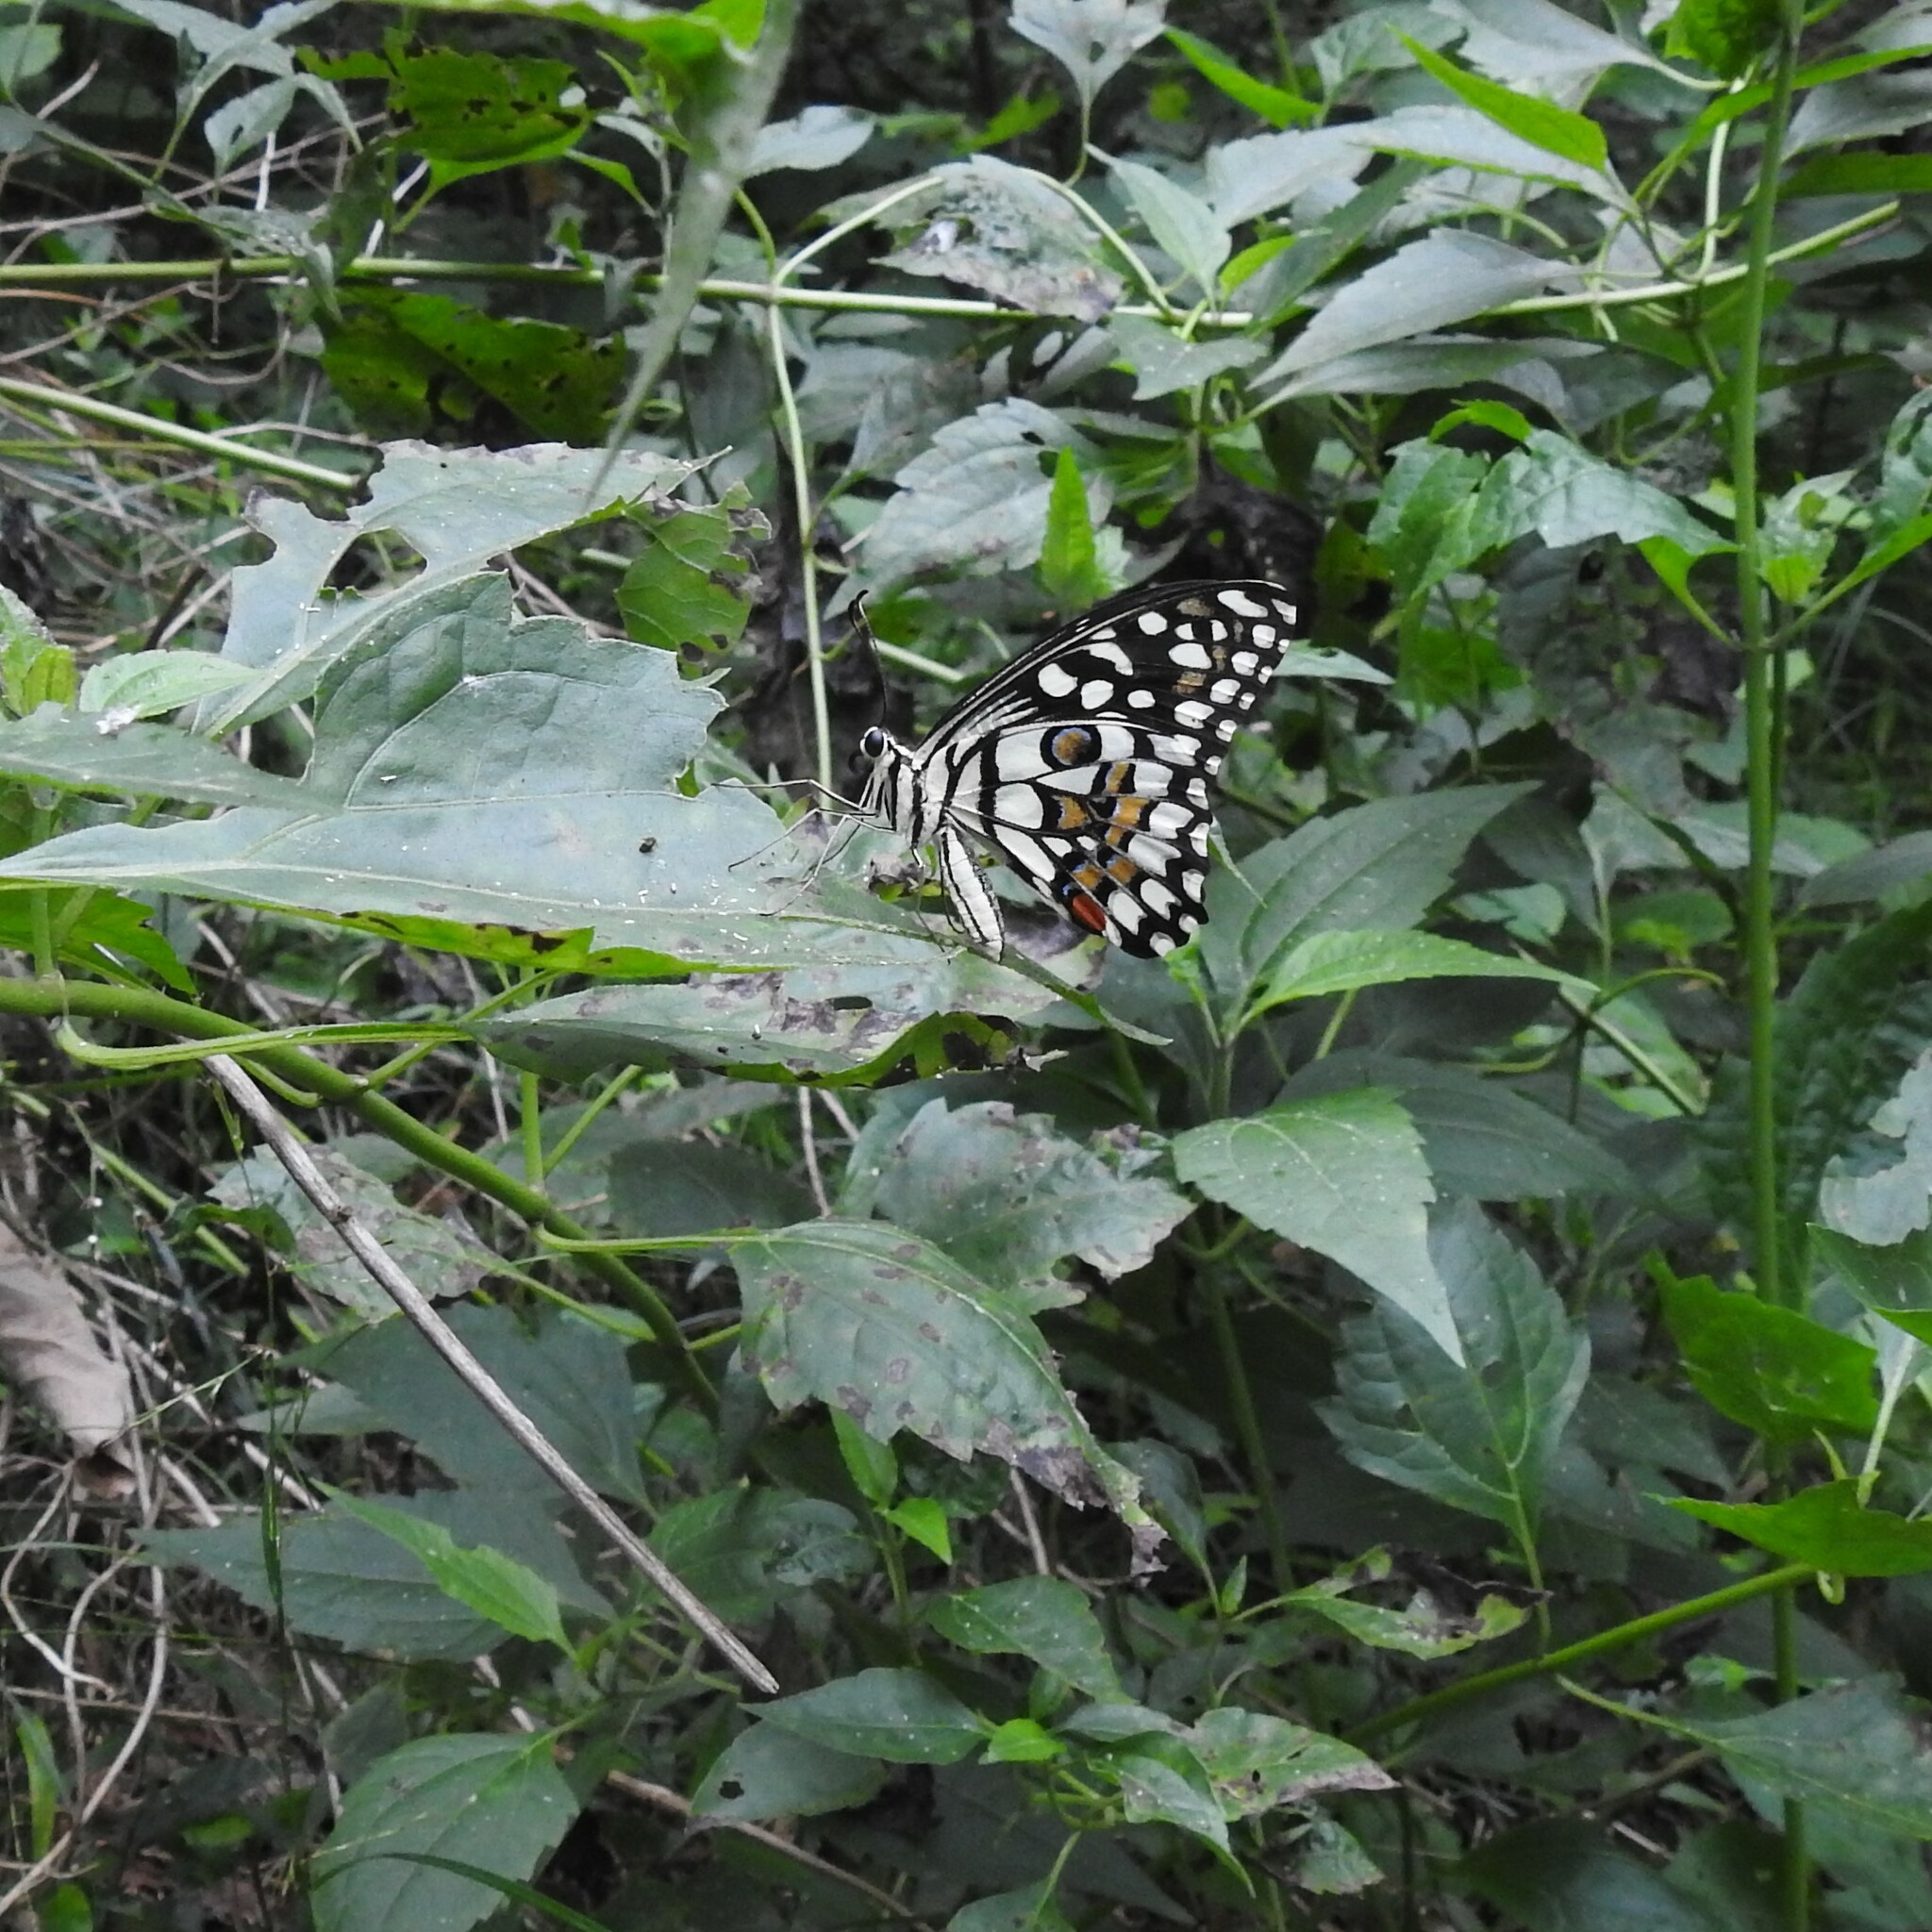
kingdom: Animalia
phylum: Arthropoda
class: Insecta
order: Lepidoptera
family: Papilionidae
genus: Papilio
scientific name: Papilio demoleus
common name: Lime butterfly
